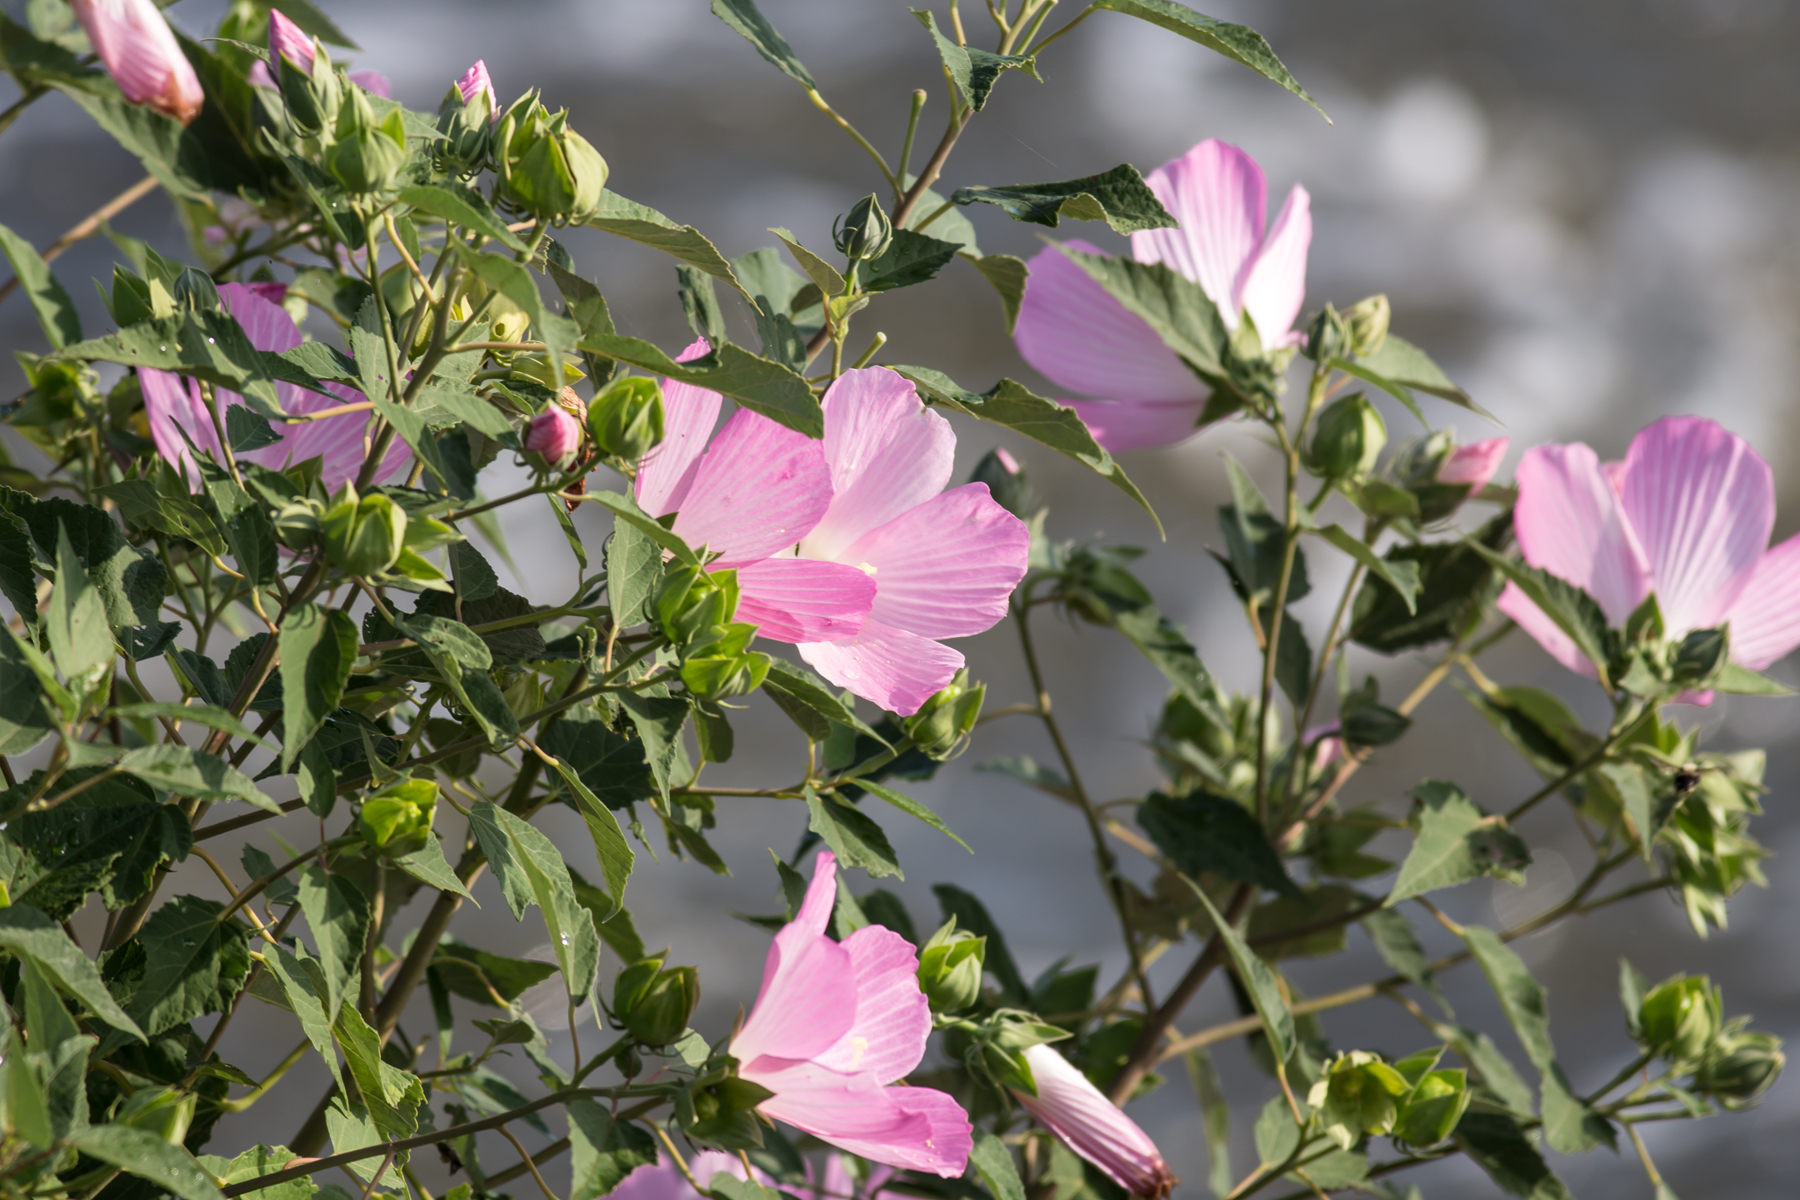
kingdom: Plantae
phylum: Tracheophyta
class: Magnoliopsida
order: Malvales
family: Malvaceae
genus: Hibiscus
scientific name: Hibiscus moscheutos
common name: Common rose-mallow
